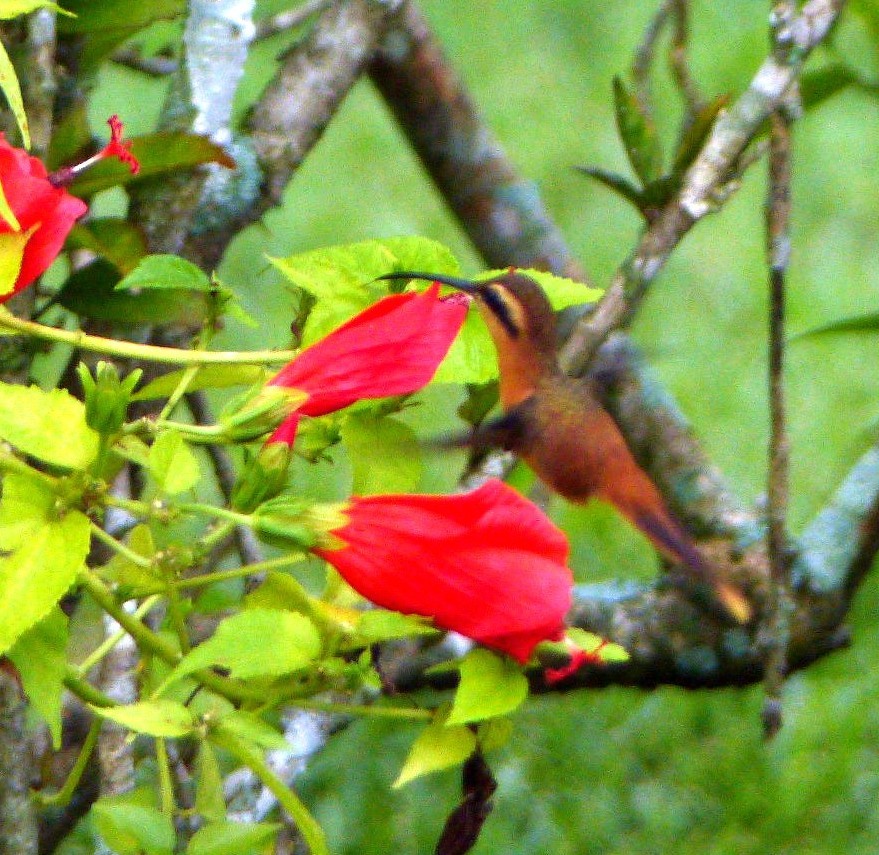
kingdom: Animalia
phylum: Chordata
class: Aves
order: Apodiformes
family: Trochilidae
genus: Phaethornis
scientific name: Phaethornis ruber
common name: Reddish hermit
